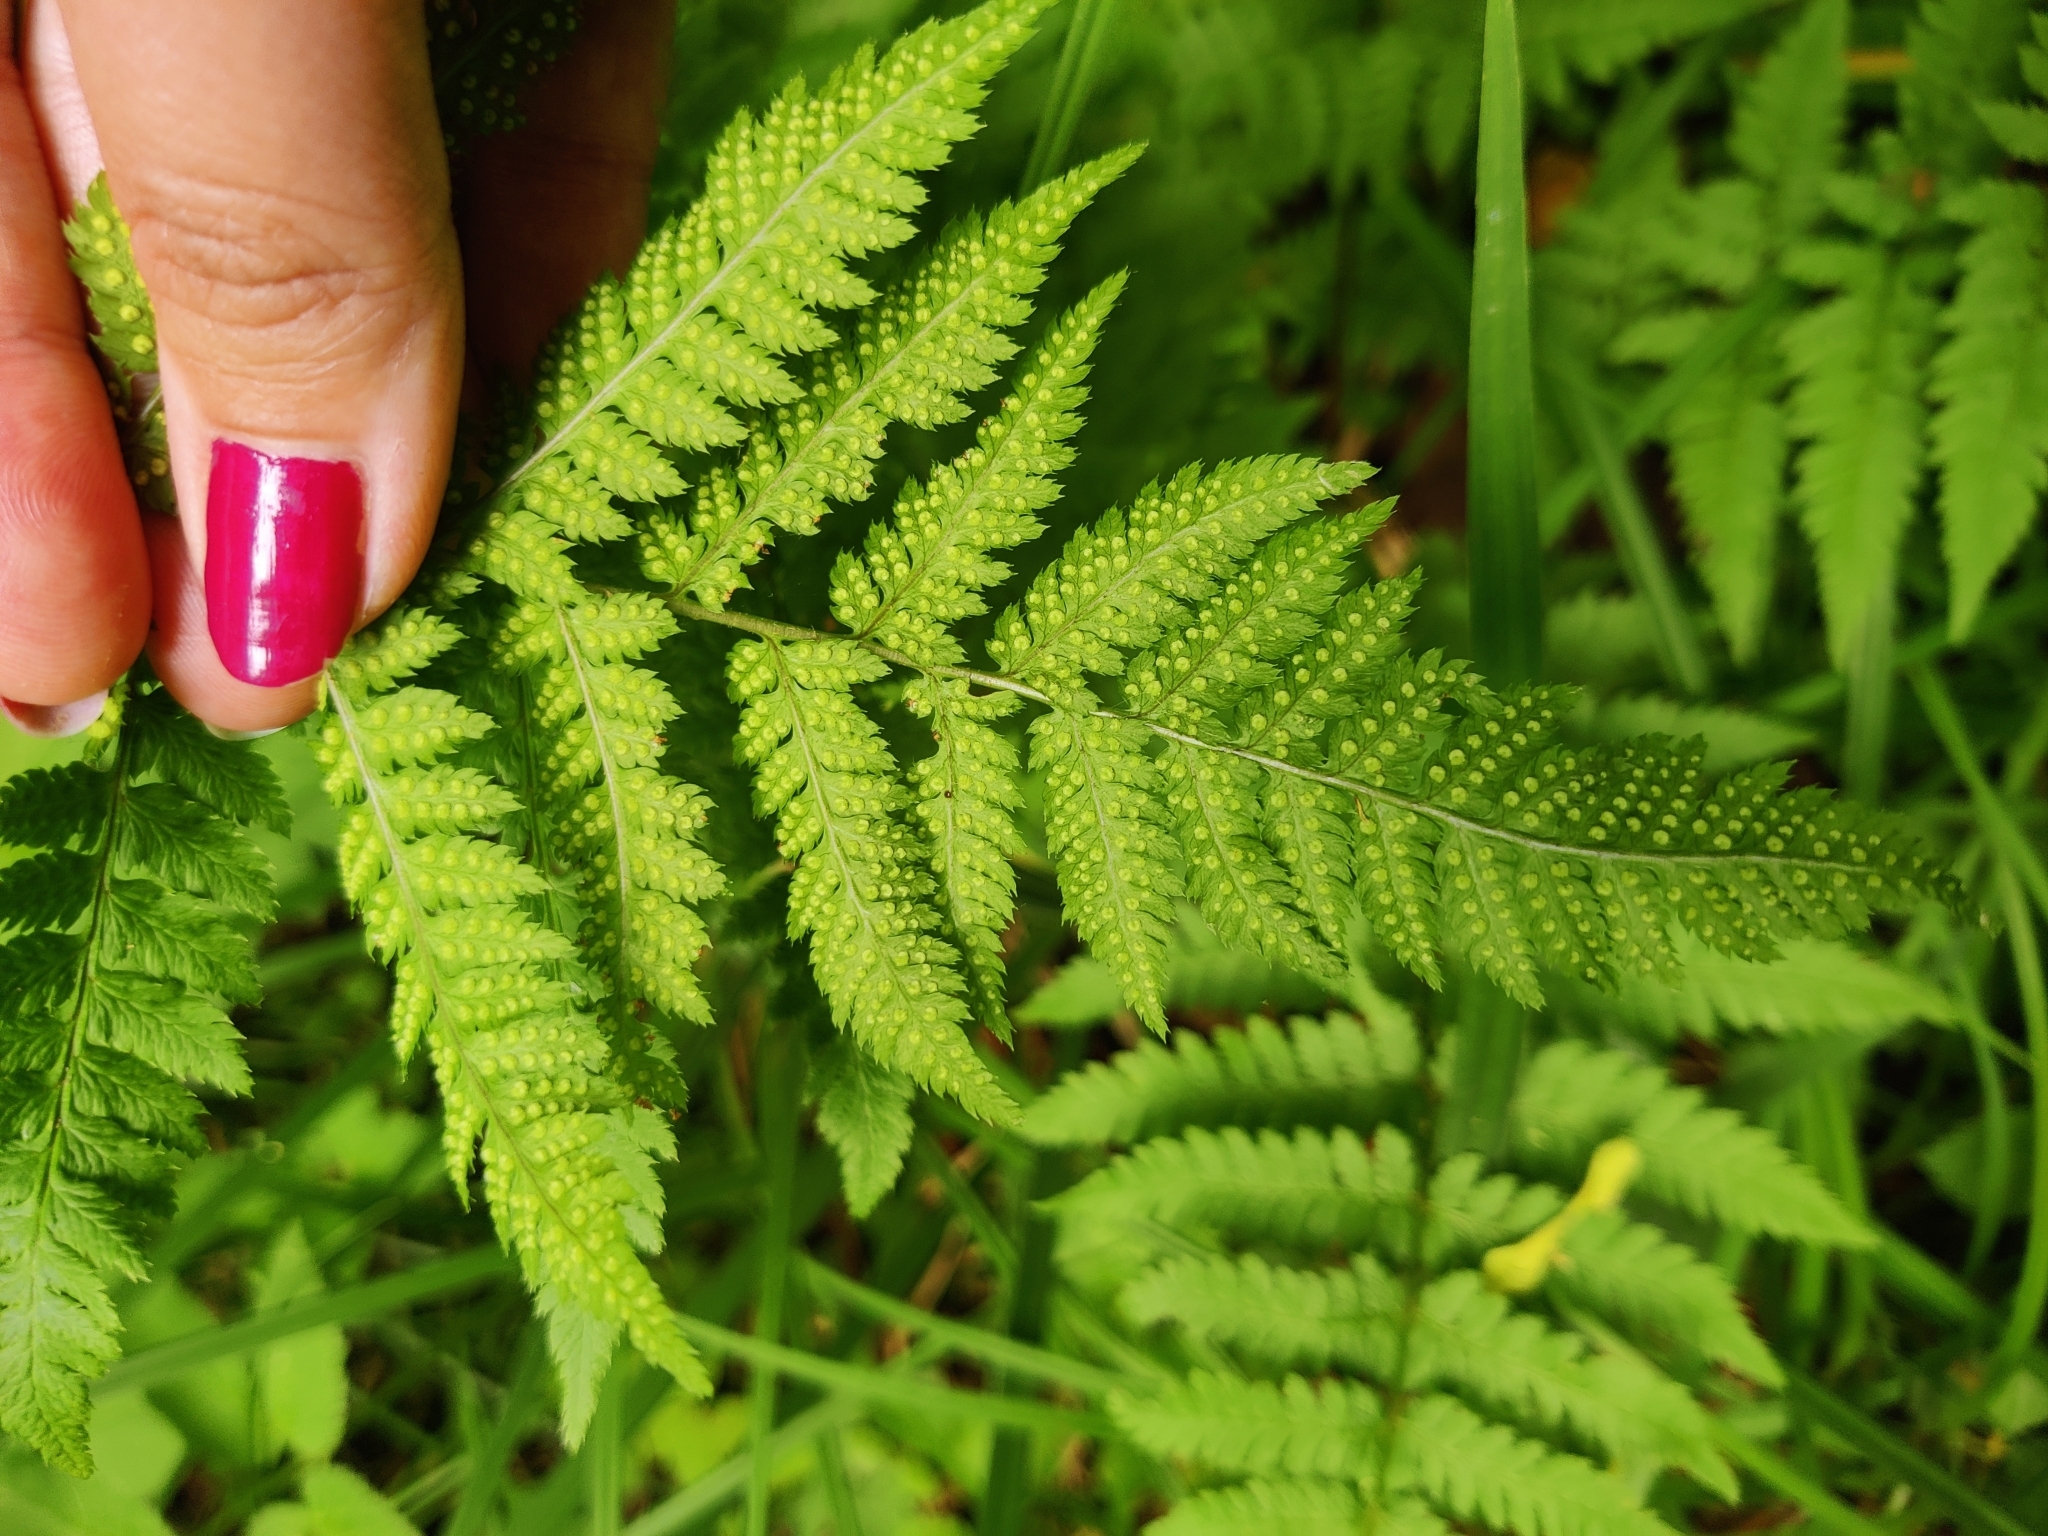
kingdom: Plantae
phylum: Tracheophyta
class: Polypodiopsida
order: Polypodiales
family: Dryopteridaceae
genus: Dryopteris
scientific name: Dryopteris carthusiana
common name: Narrow buckler-fern
